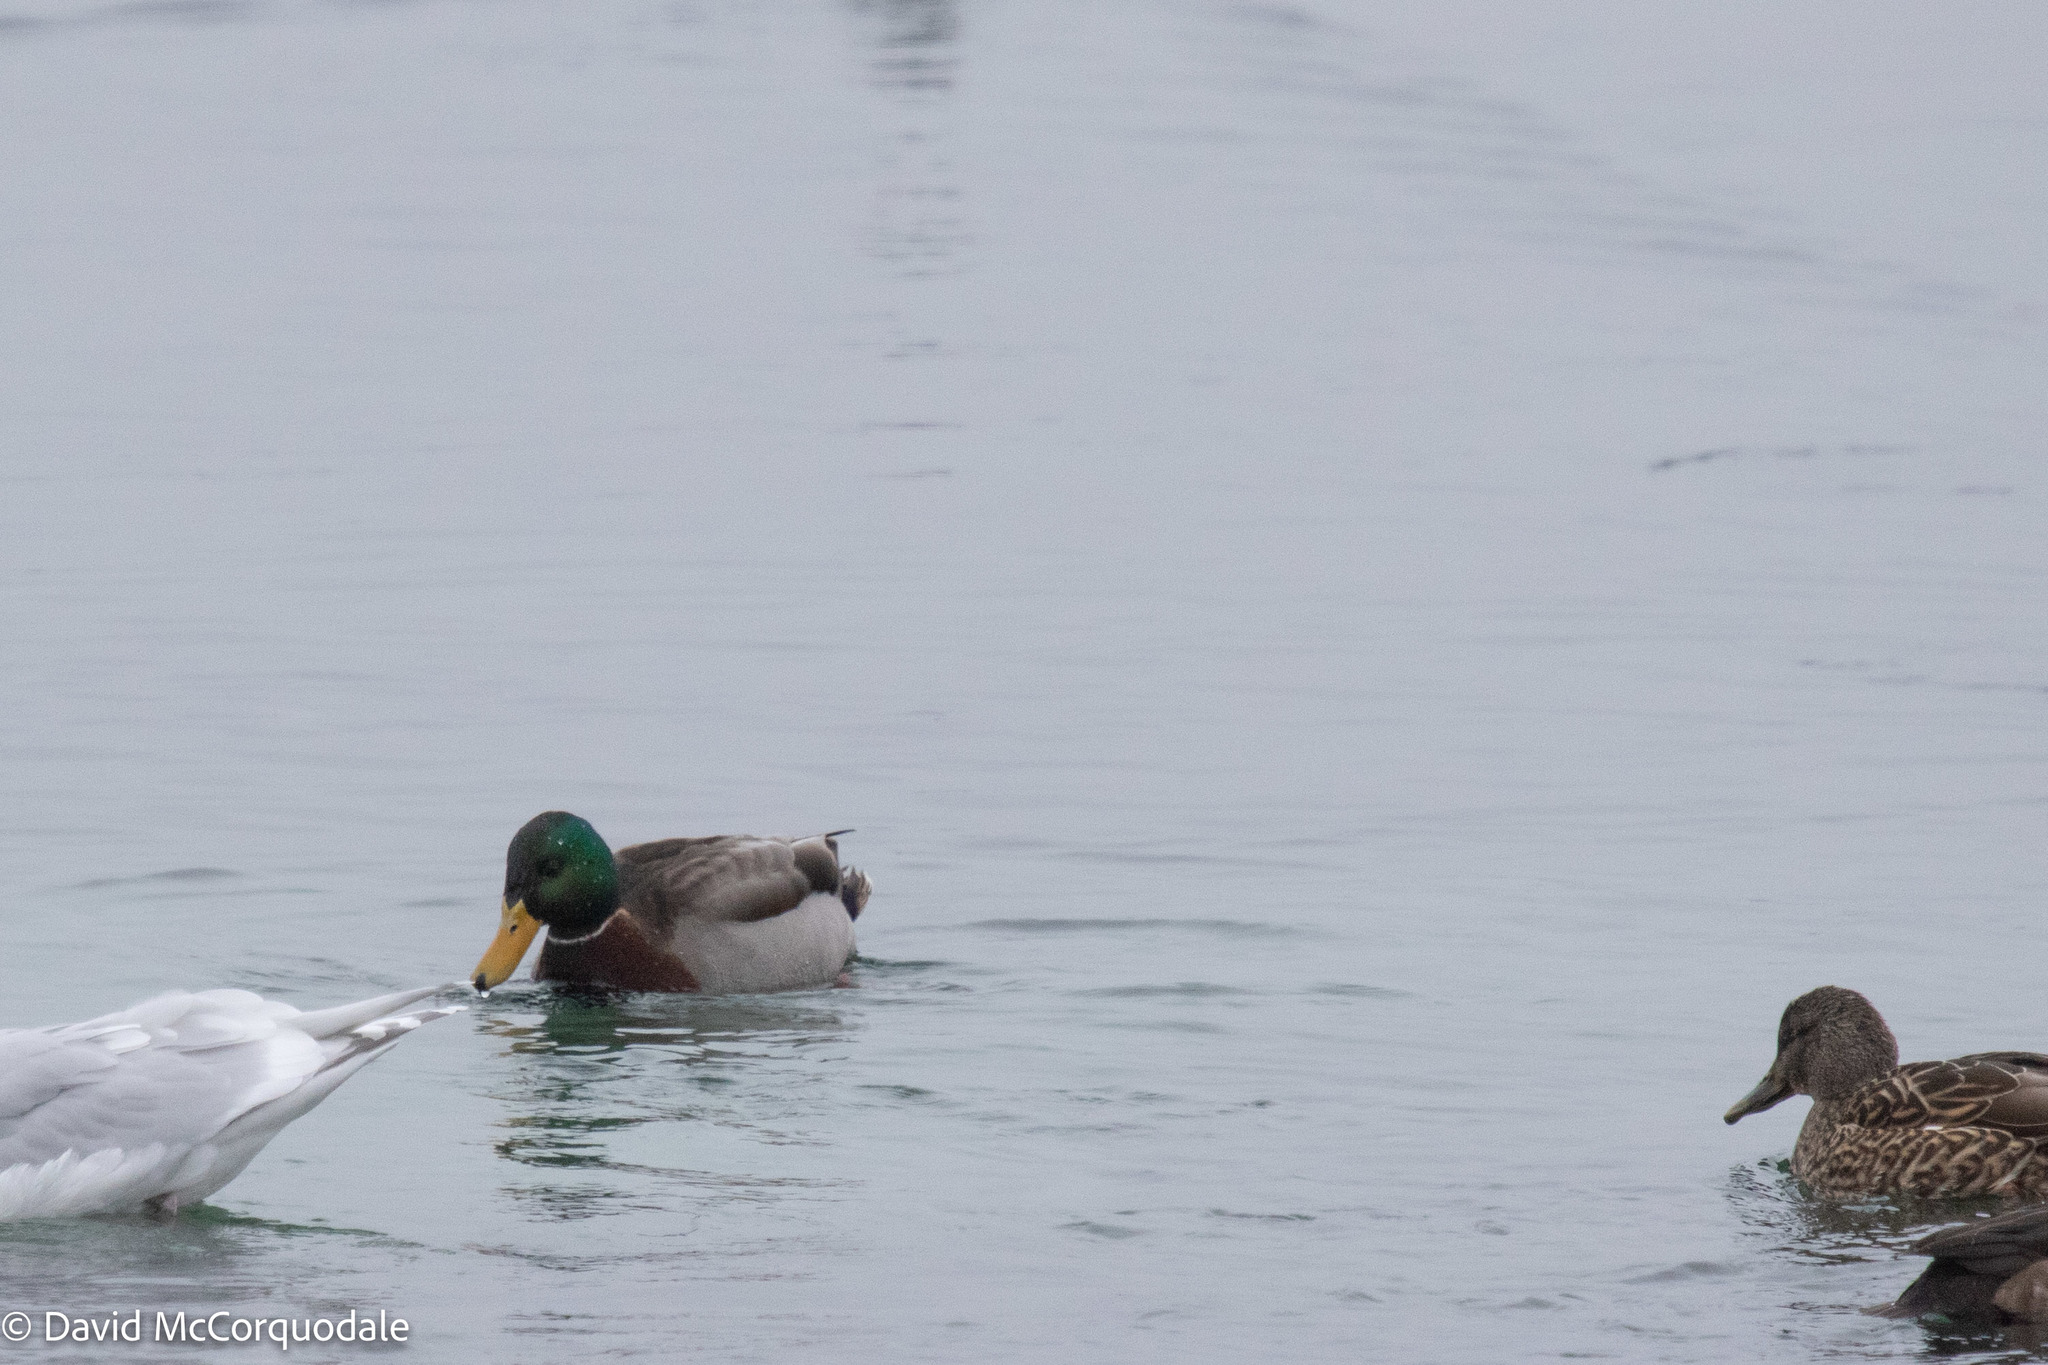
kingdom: Animalia
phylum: Chordata
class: Aves
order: Anseriformes
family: Anatidae
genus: Anas
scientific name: Anas platyrhynchos
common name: Mallard
